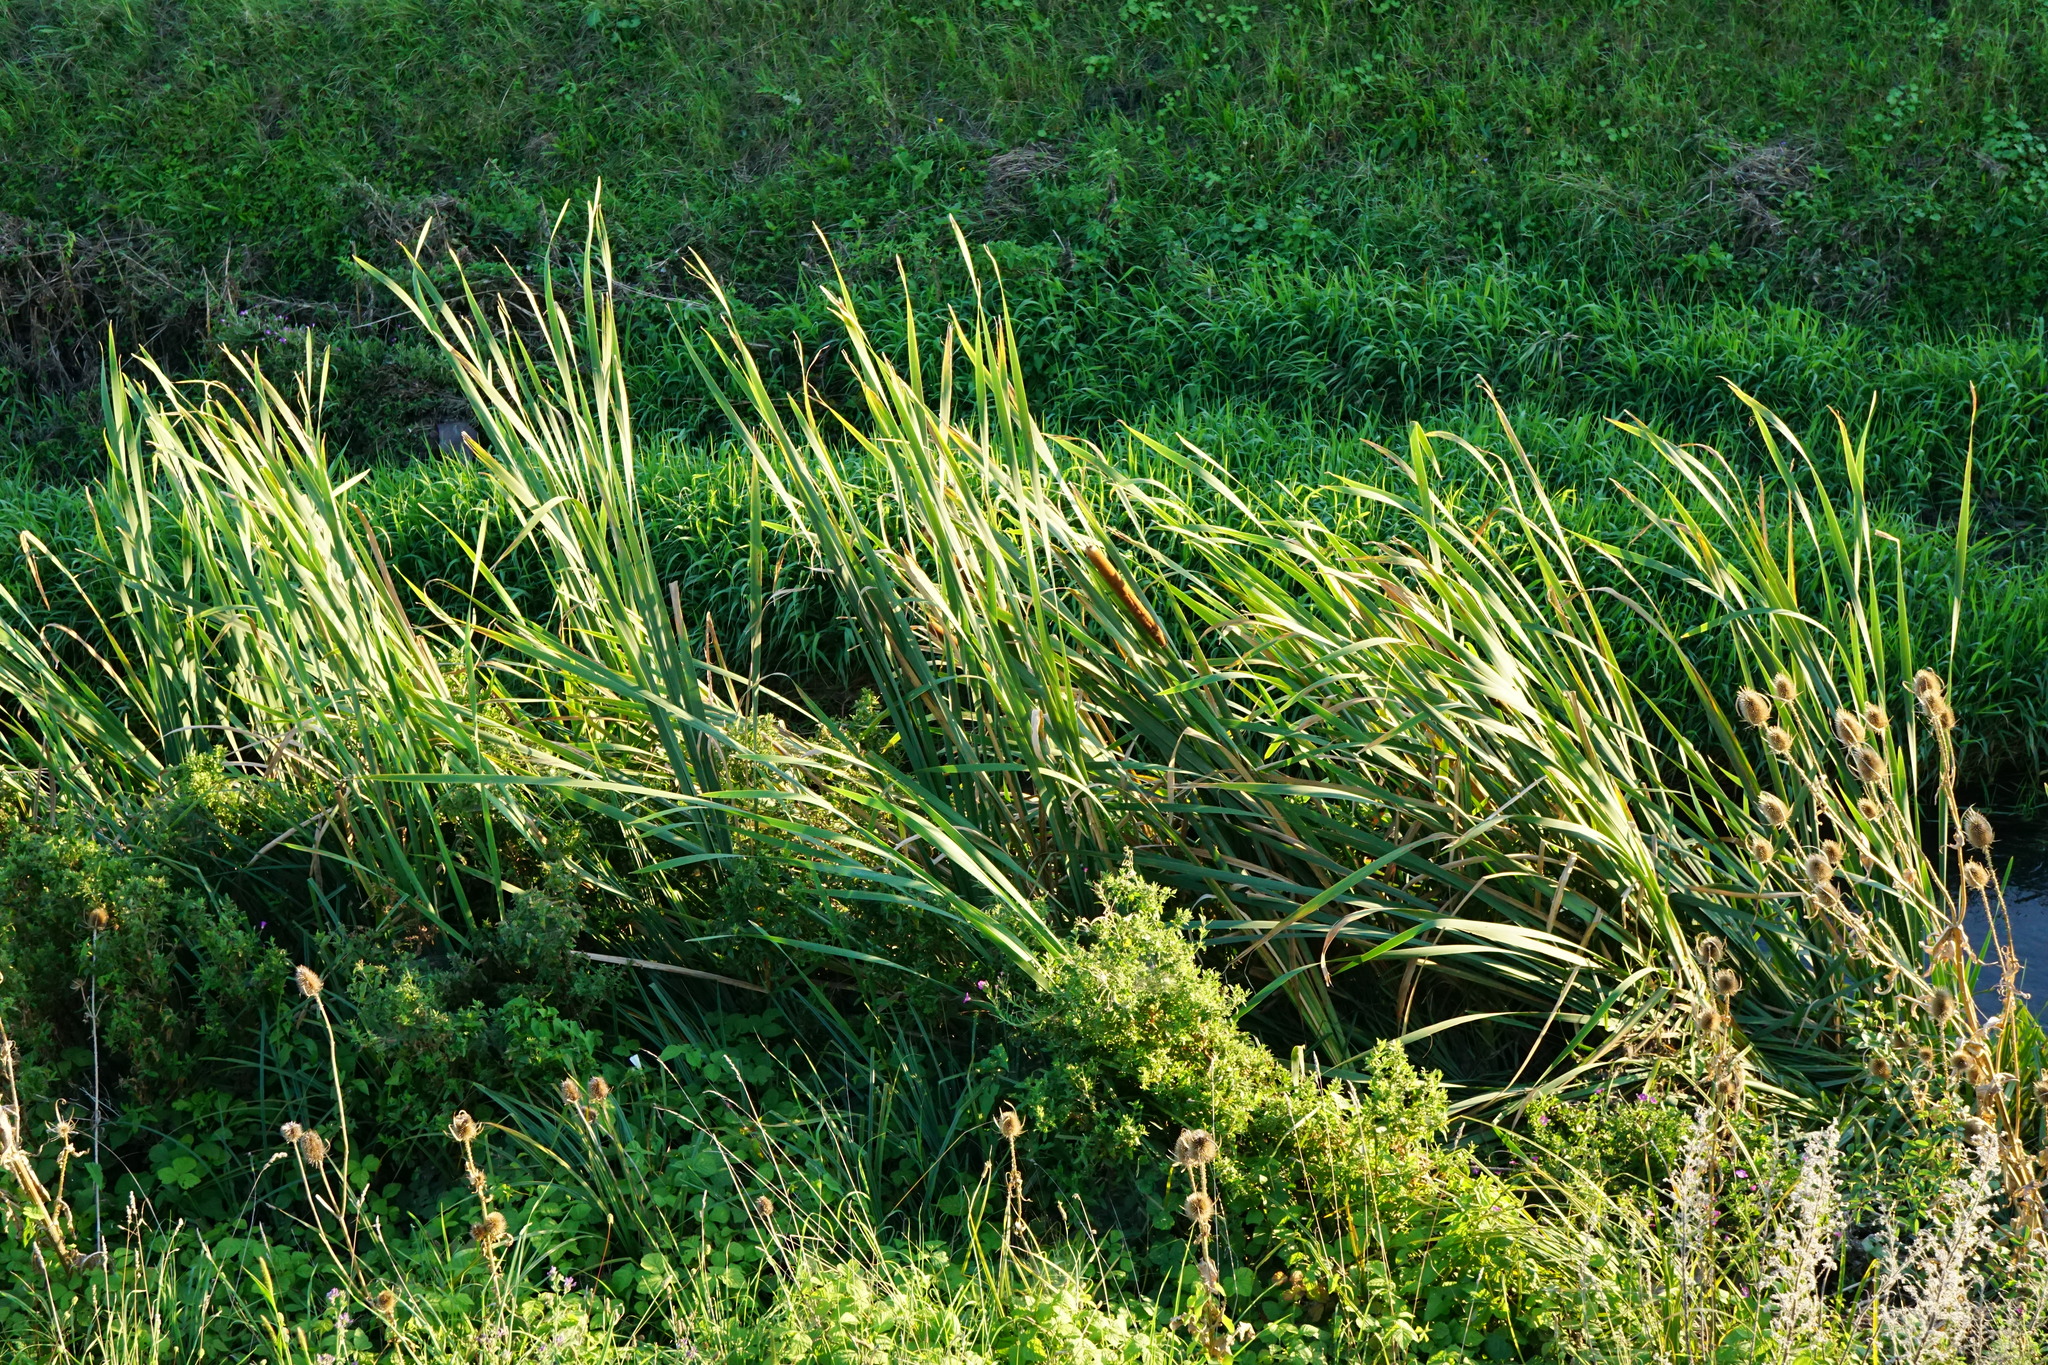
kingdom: Plantae
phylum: Tracheophyta
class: Liliopsida
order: Poales
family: Typhaceae
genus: Typha
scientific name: Typha latifolia
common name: Broadleaf cattail
